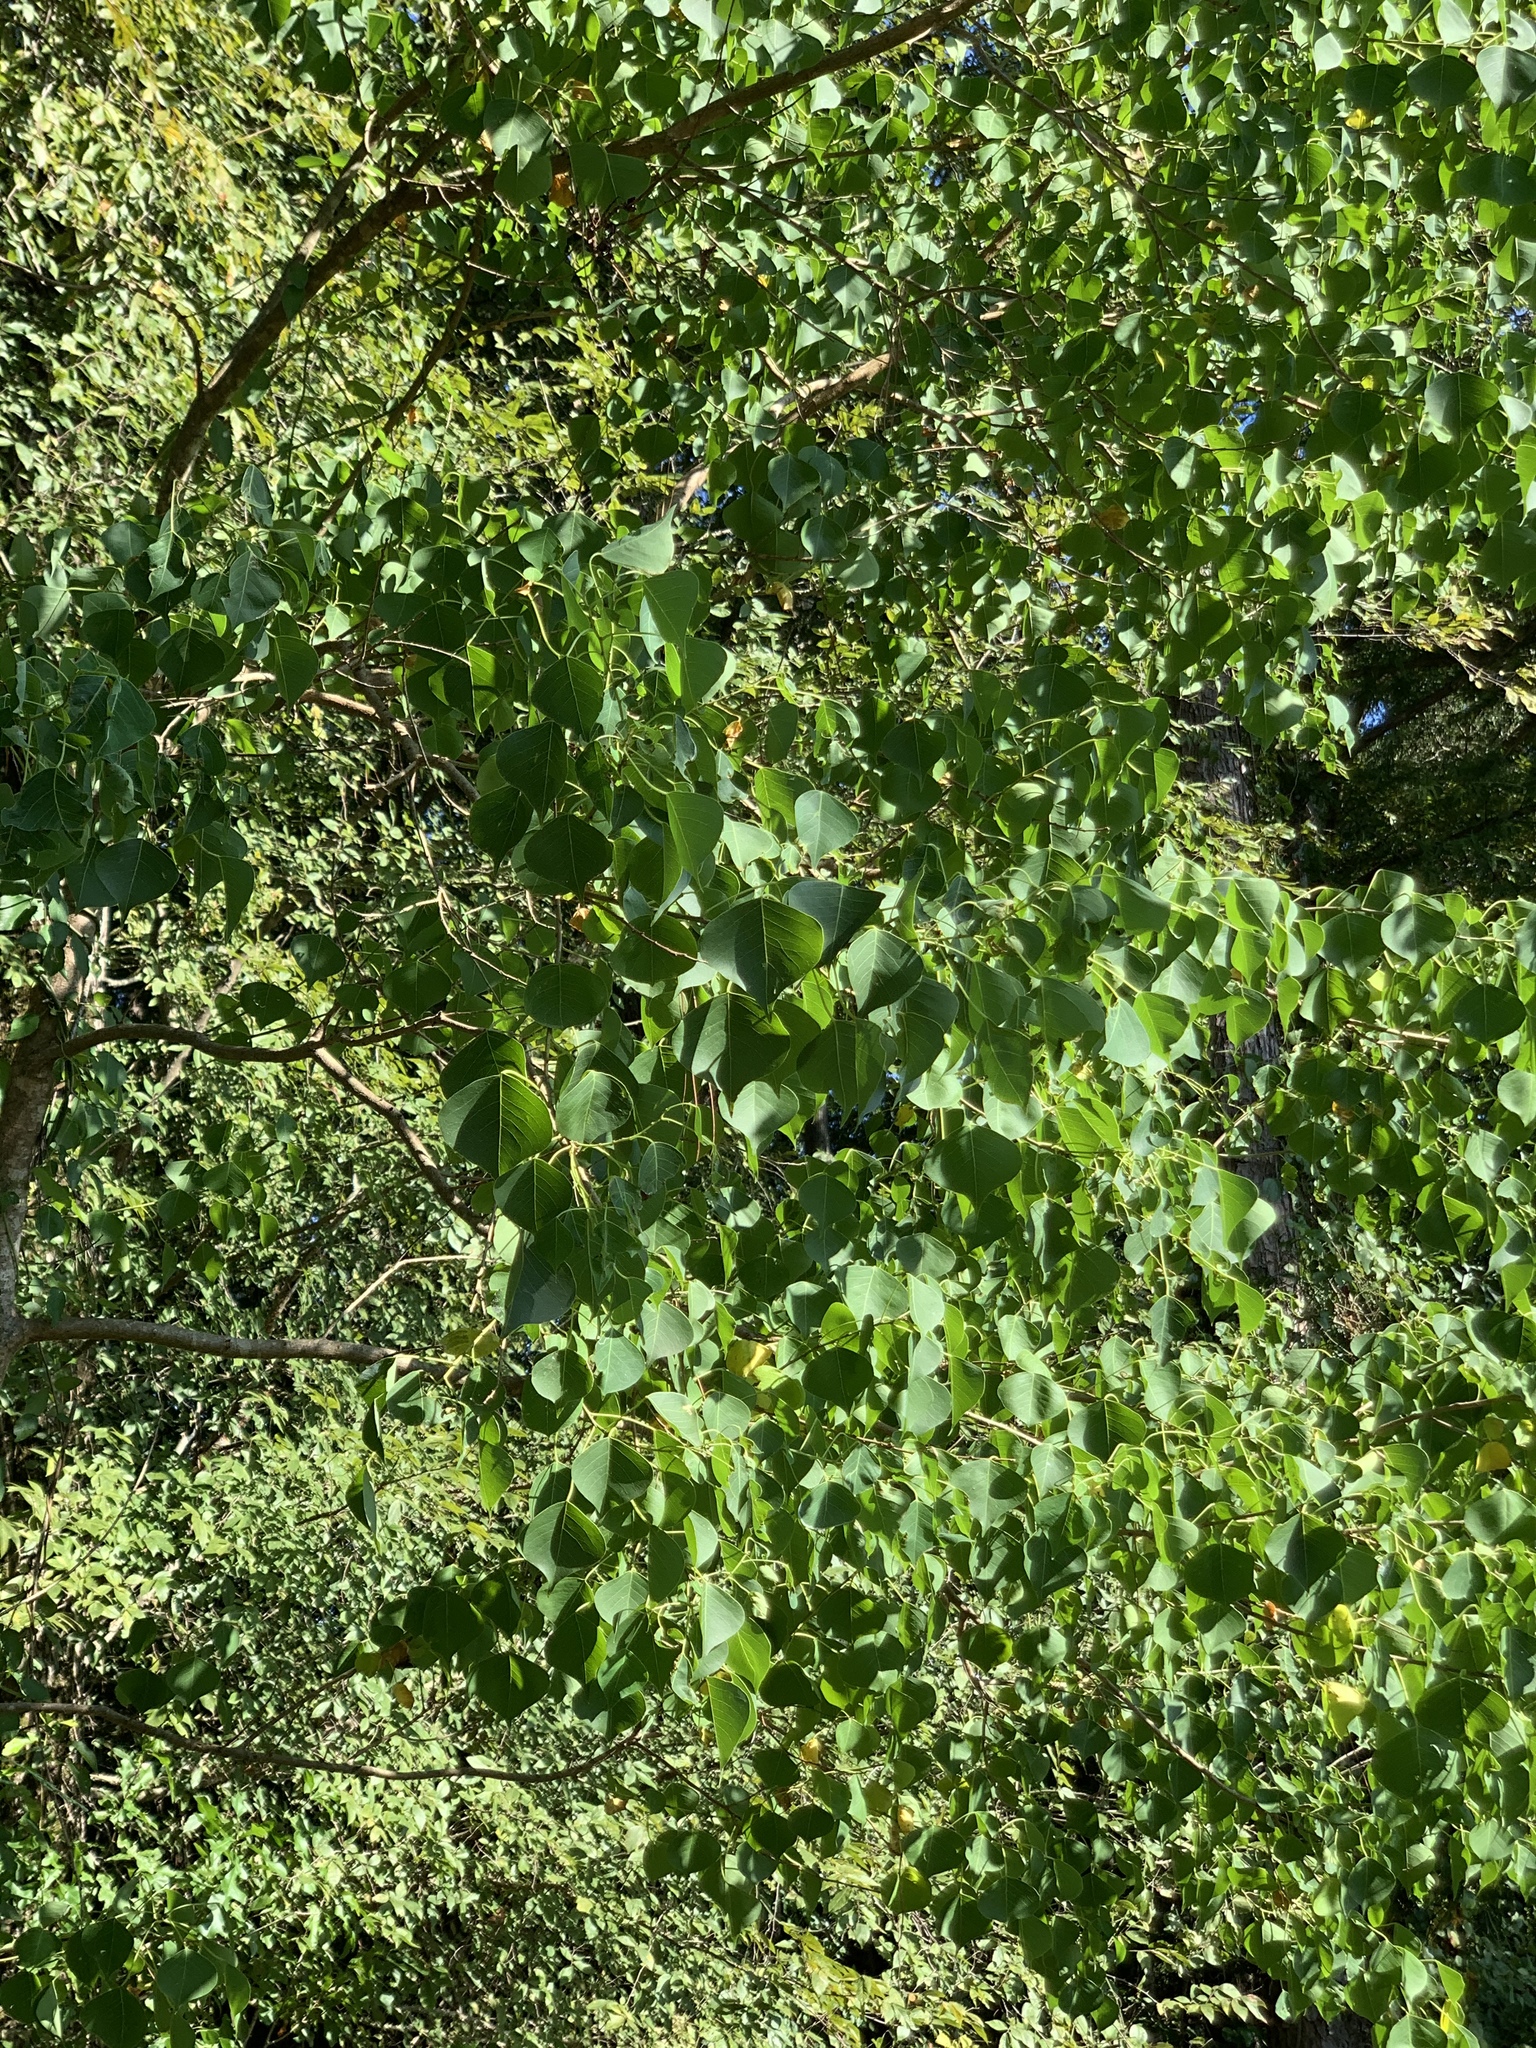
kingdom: Plantae
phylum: Tracheophyta
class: Magnoliopsida
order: Malpighiales
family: Euphorbiaceae
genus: Triadica
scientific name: Triadica sebifera
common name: Chinese tallow
